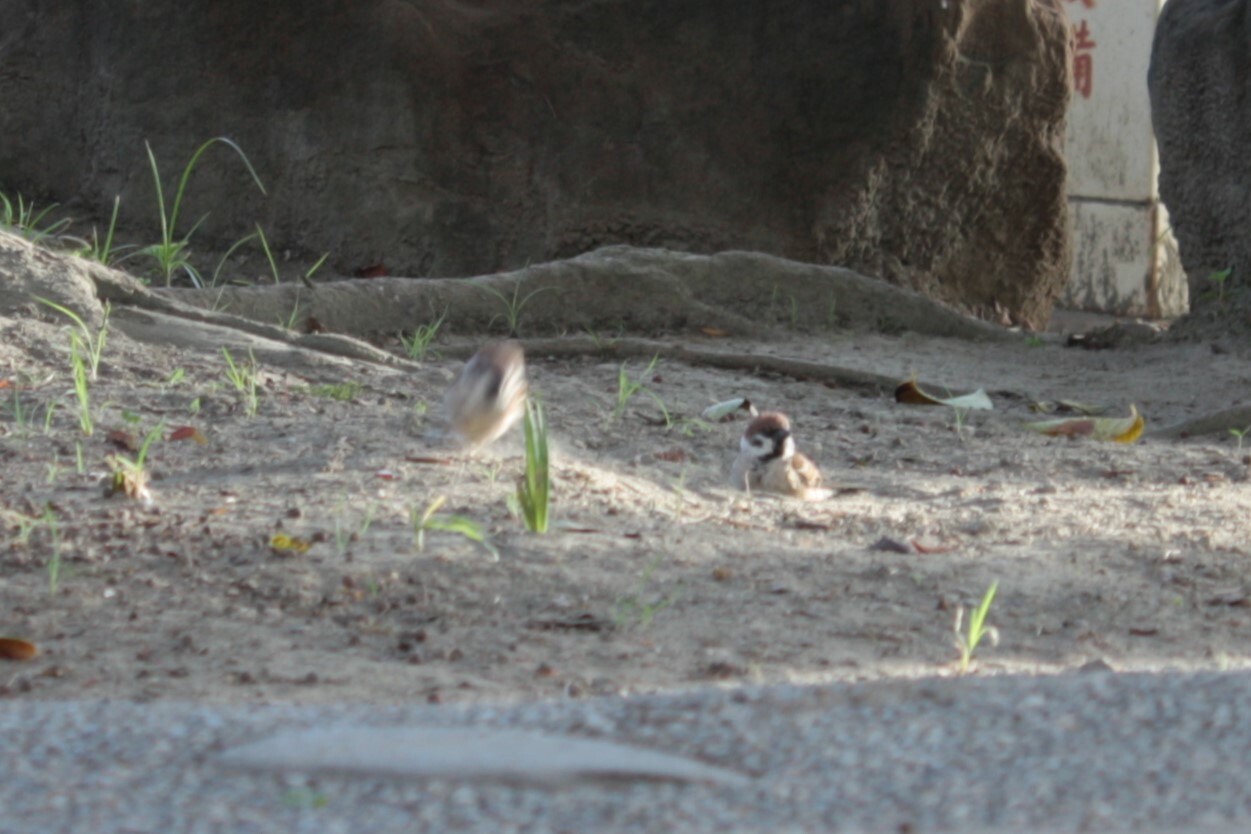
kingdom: Animalia
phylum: Chordata
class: Aves
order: Passeriformes
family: Passeridae
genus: Passer
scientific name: Passer montanus
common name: Eurasian tree sparrow
